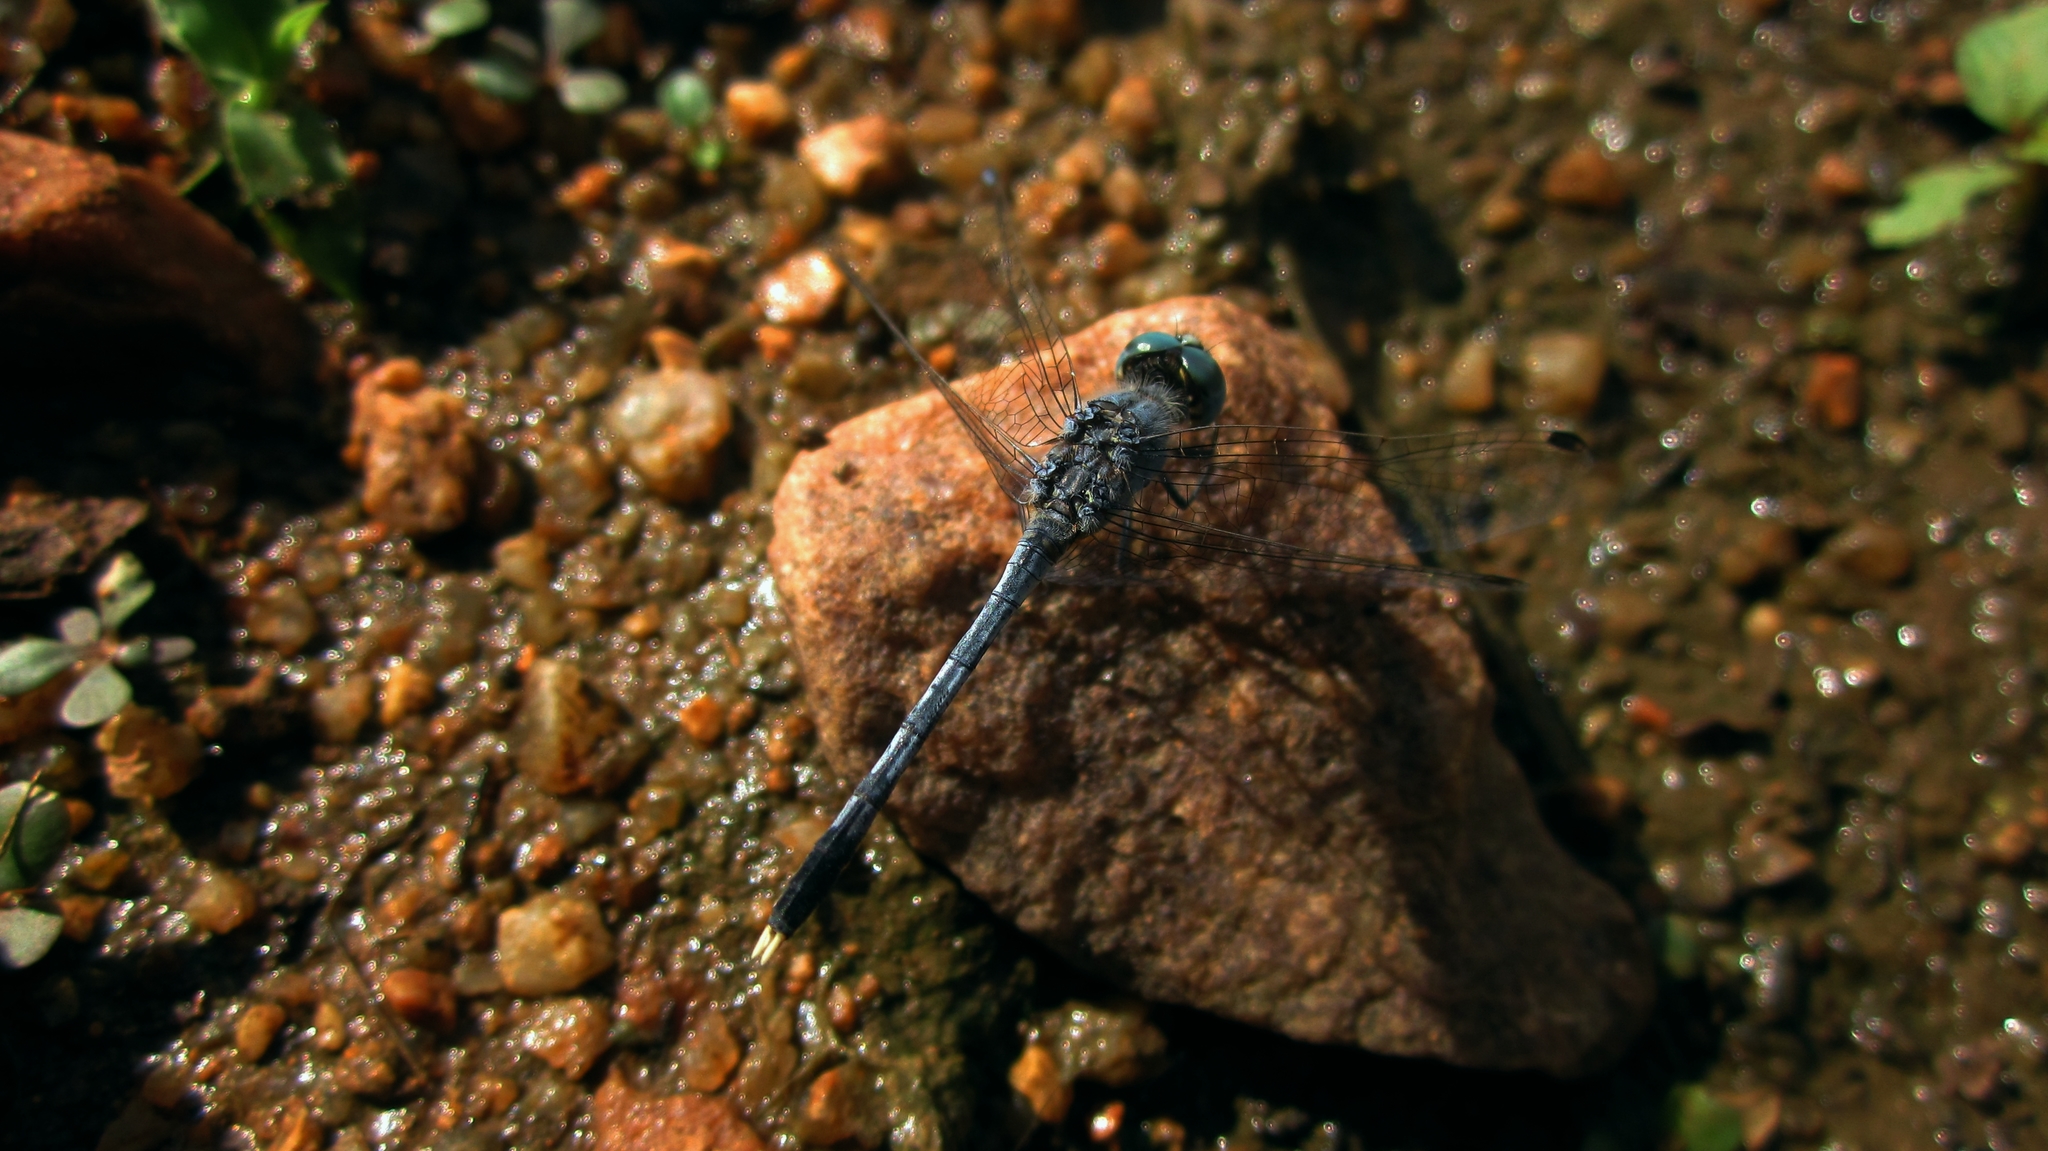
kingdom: Animalia
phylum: Arthropoda
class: Insecta
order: Odonata
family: Libellulidae
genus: Diplacodes
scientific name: Diplacodes trivialis
